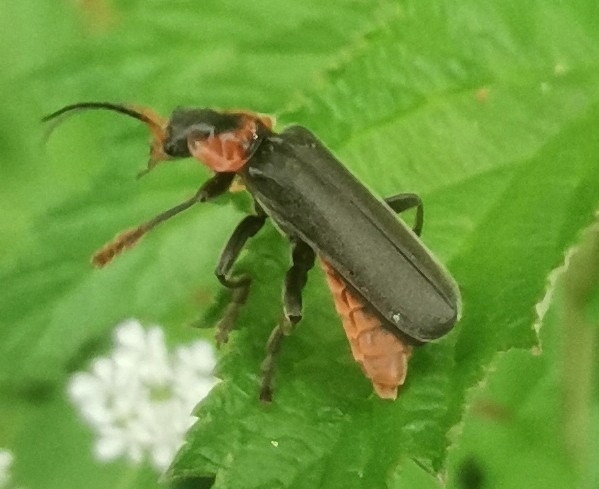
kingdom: Animalia
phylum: Arthropoda
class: Insecta
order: Coleoptera
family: Cantharidae
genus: Cantharis
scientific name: Cantharis fusca
